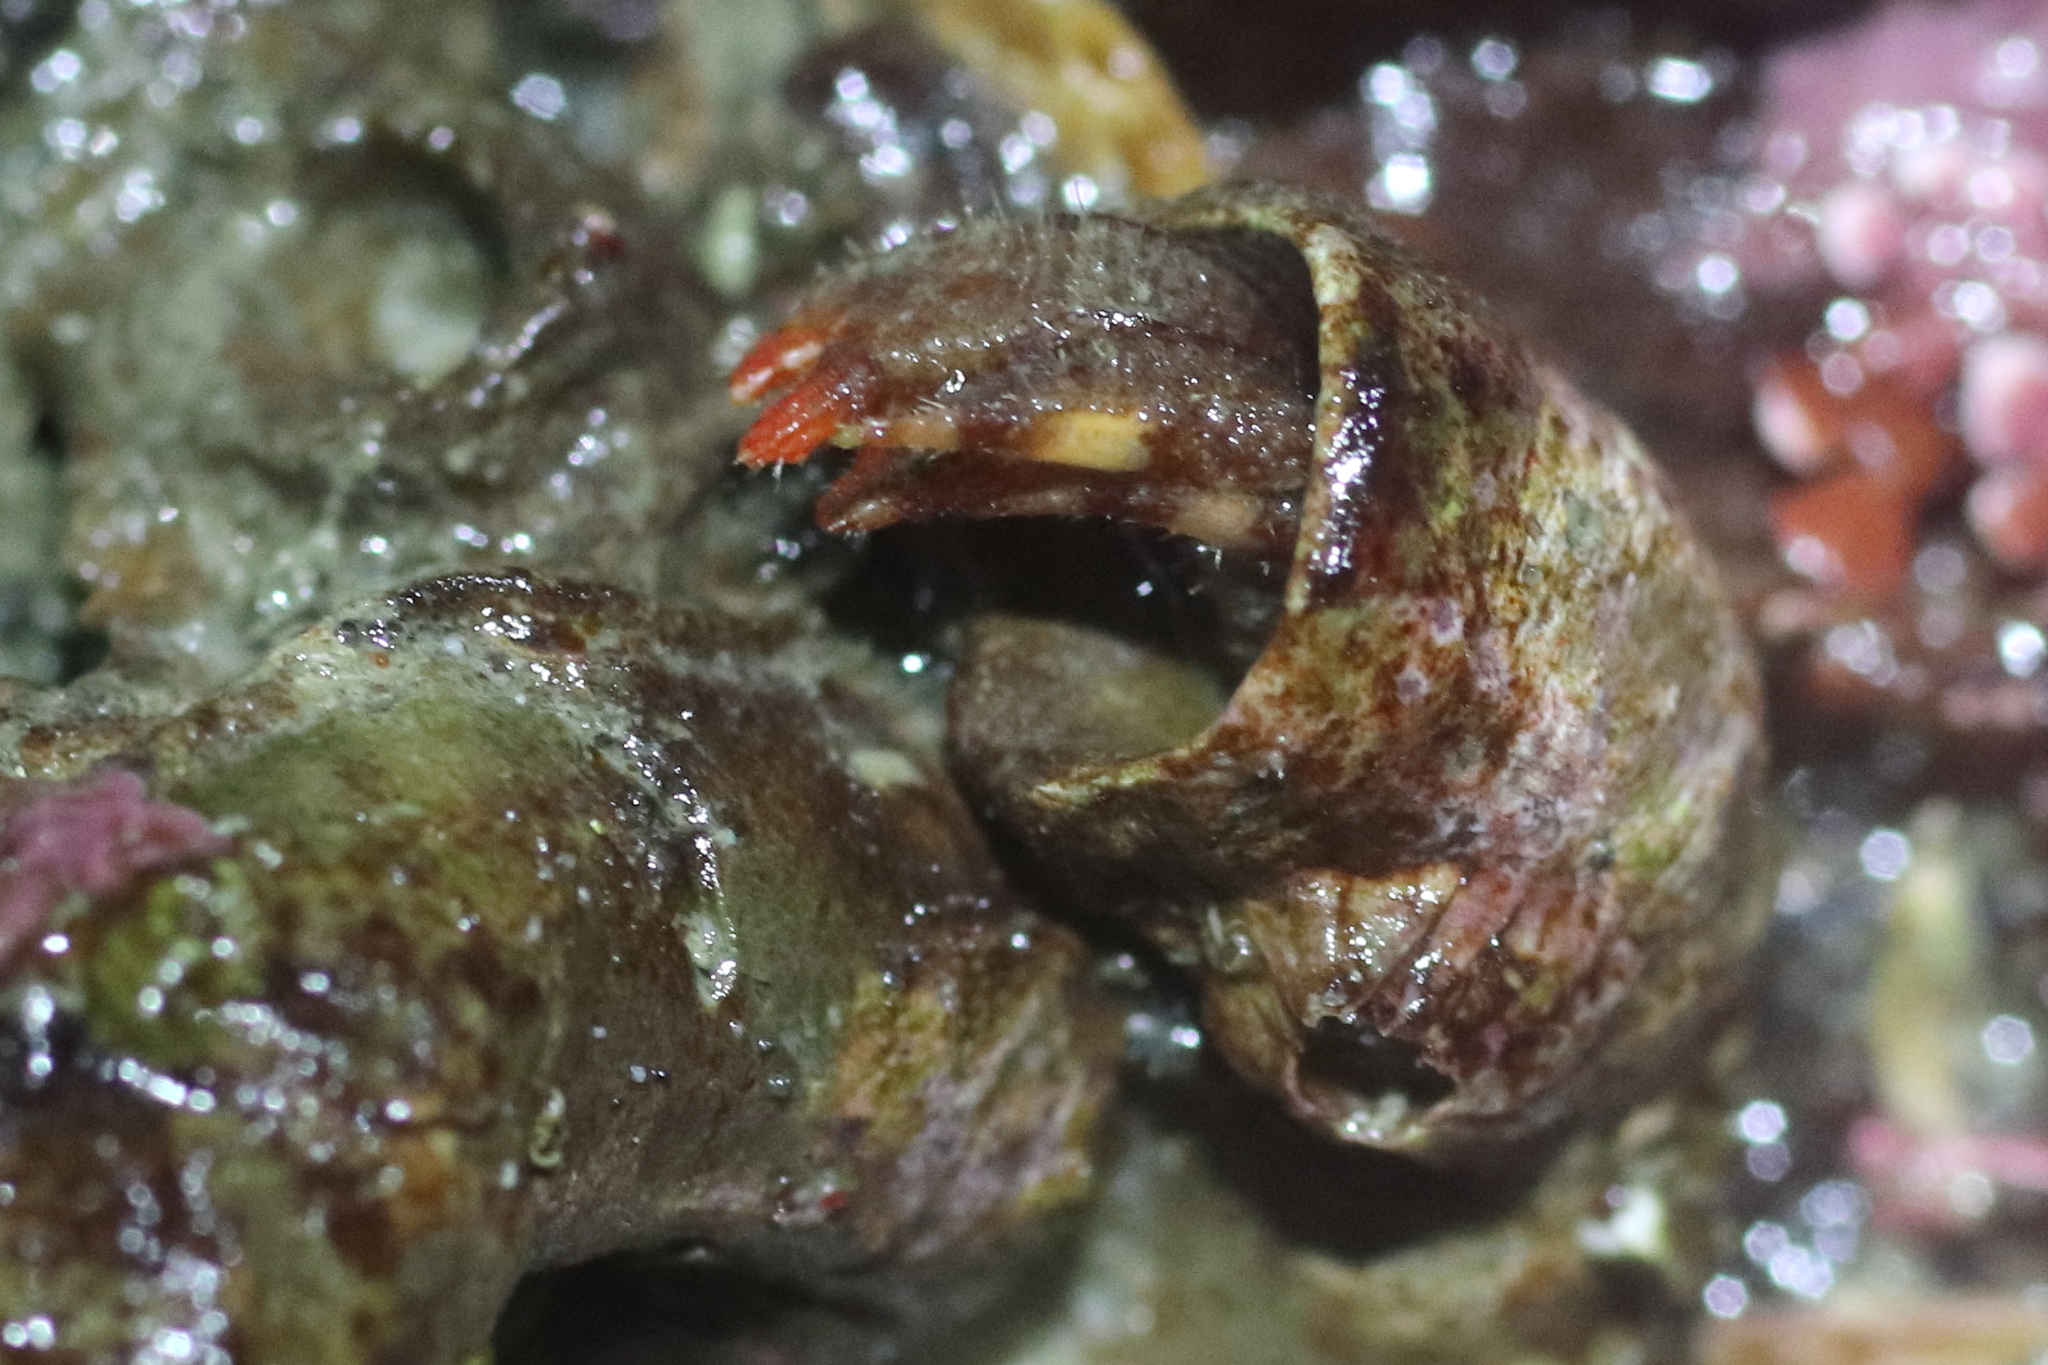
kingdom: Animalia
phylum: Arthropoda
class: Malacostraca
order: Decapoda
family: Paguridae
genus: Discorsopagurus
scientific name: Discorsopagurus schmitti
